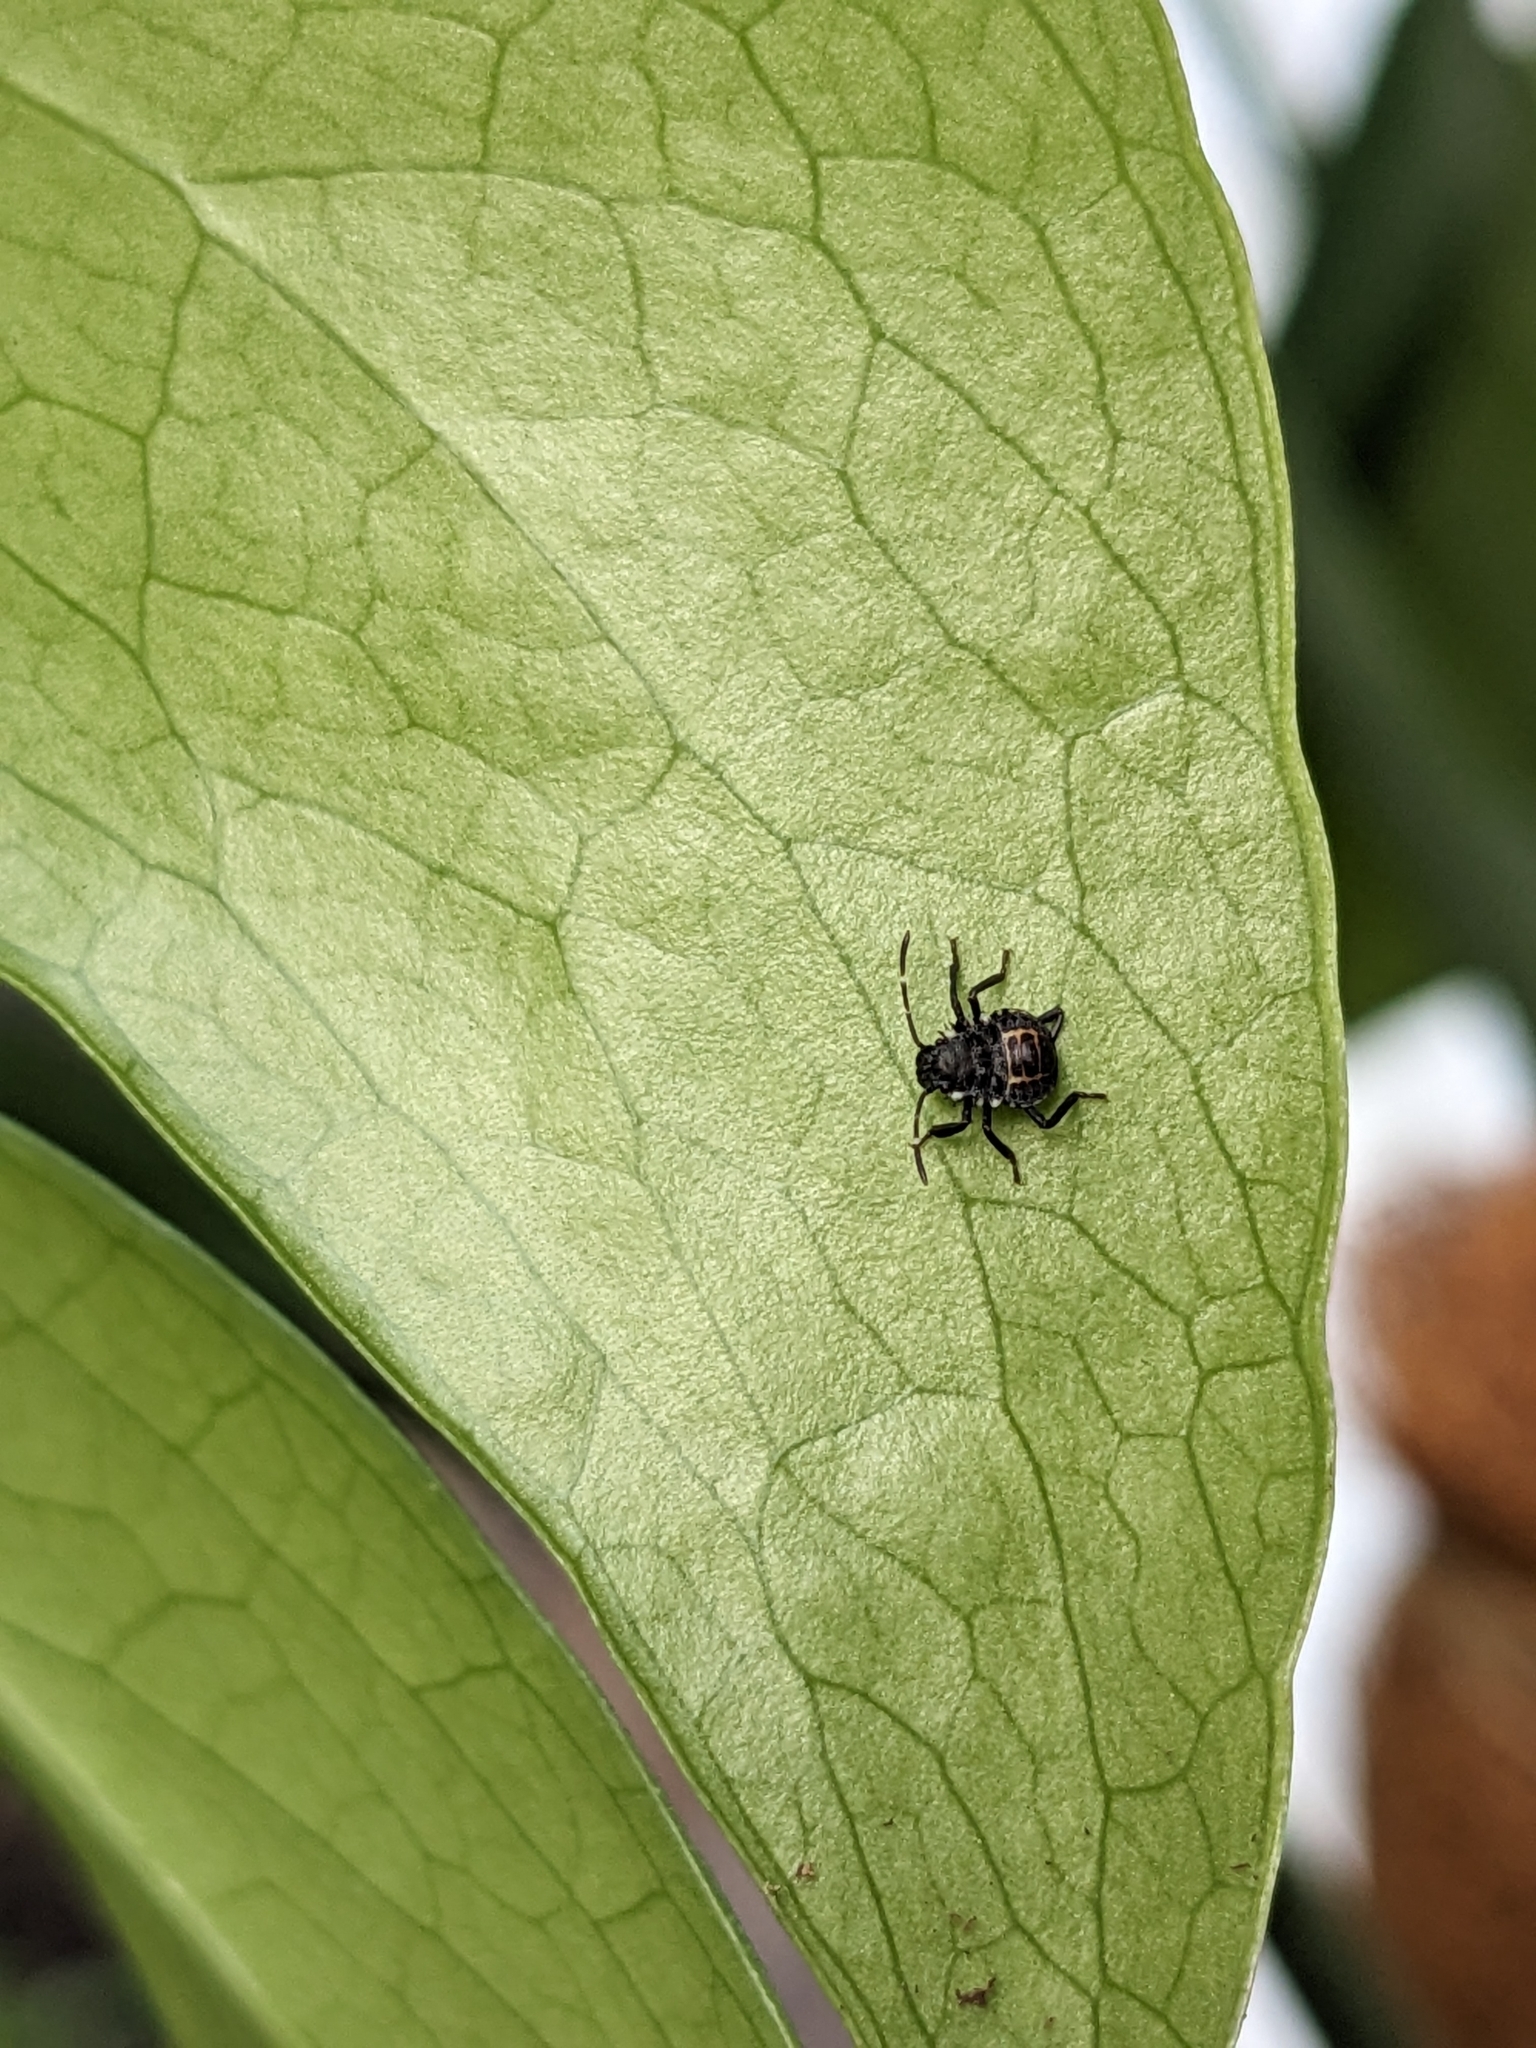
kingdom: Animalia
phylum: Arthropoda
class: Insecta
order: Hemiptera
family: Pentatomidae
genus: Halyomorpha
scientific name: Halyomorpha halys
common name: Brown marmorated stink bug
